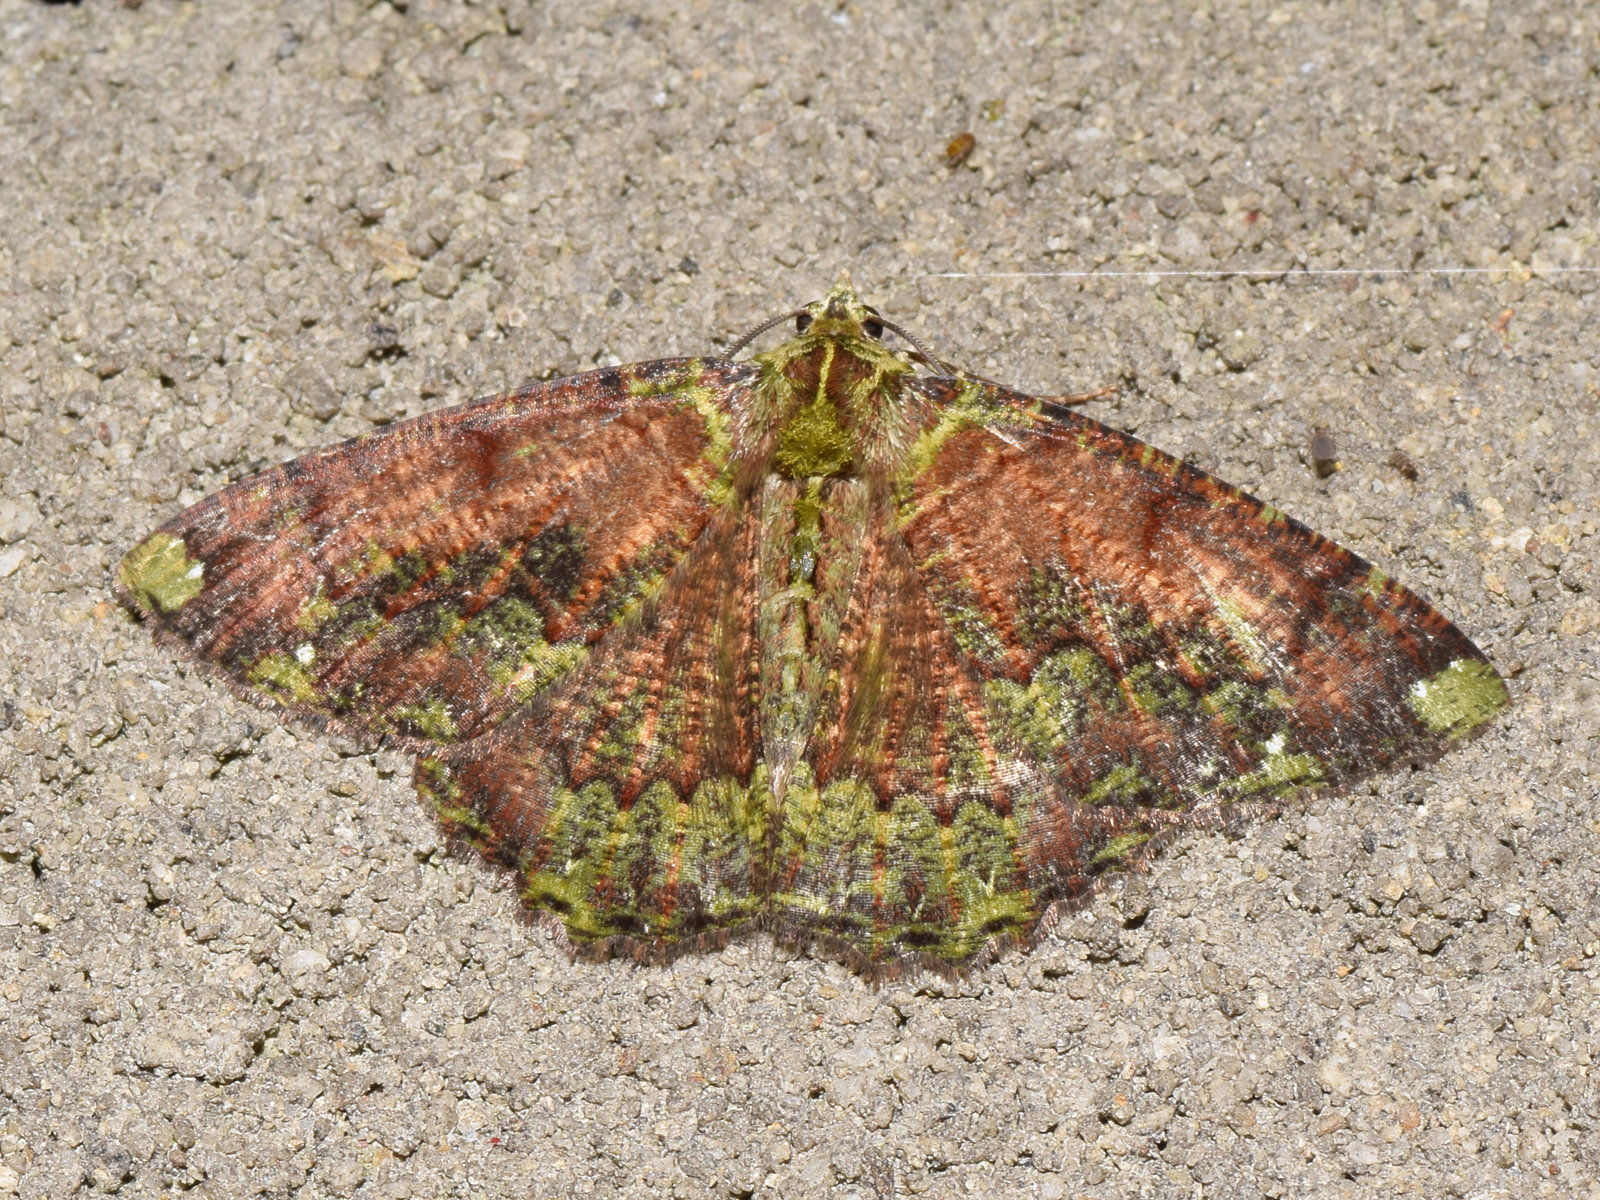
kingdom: Animalia
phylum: Arthropoda
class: Insecta
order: Lepidoptera
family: Geometridae
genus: Dindicodes
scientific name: Dindicodes apicalis
